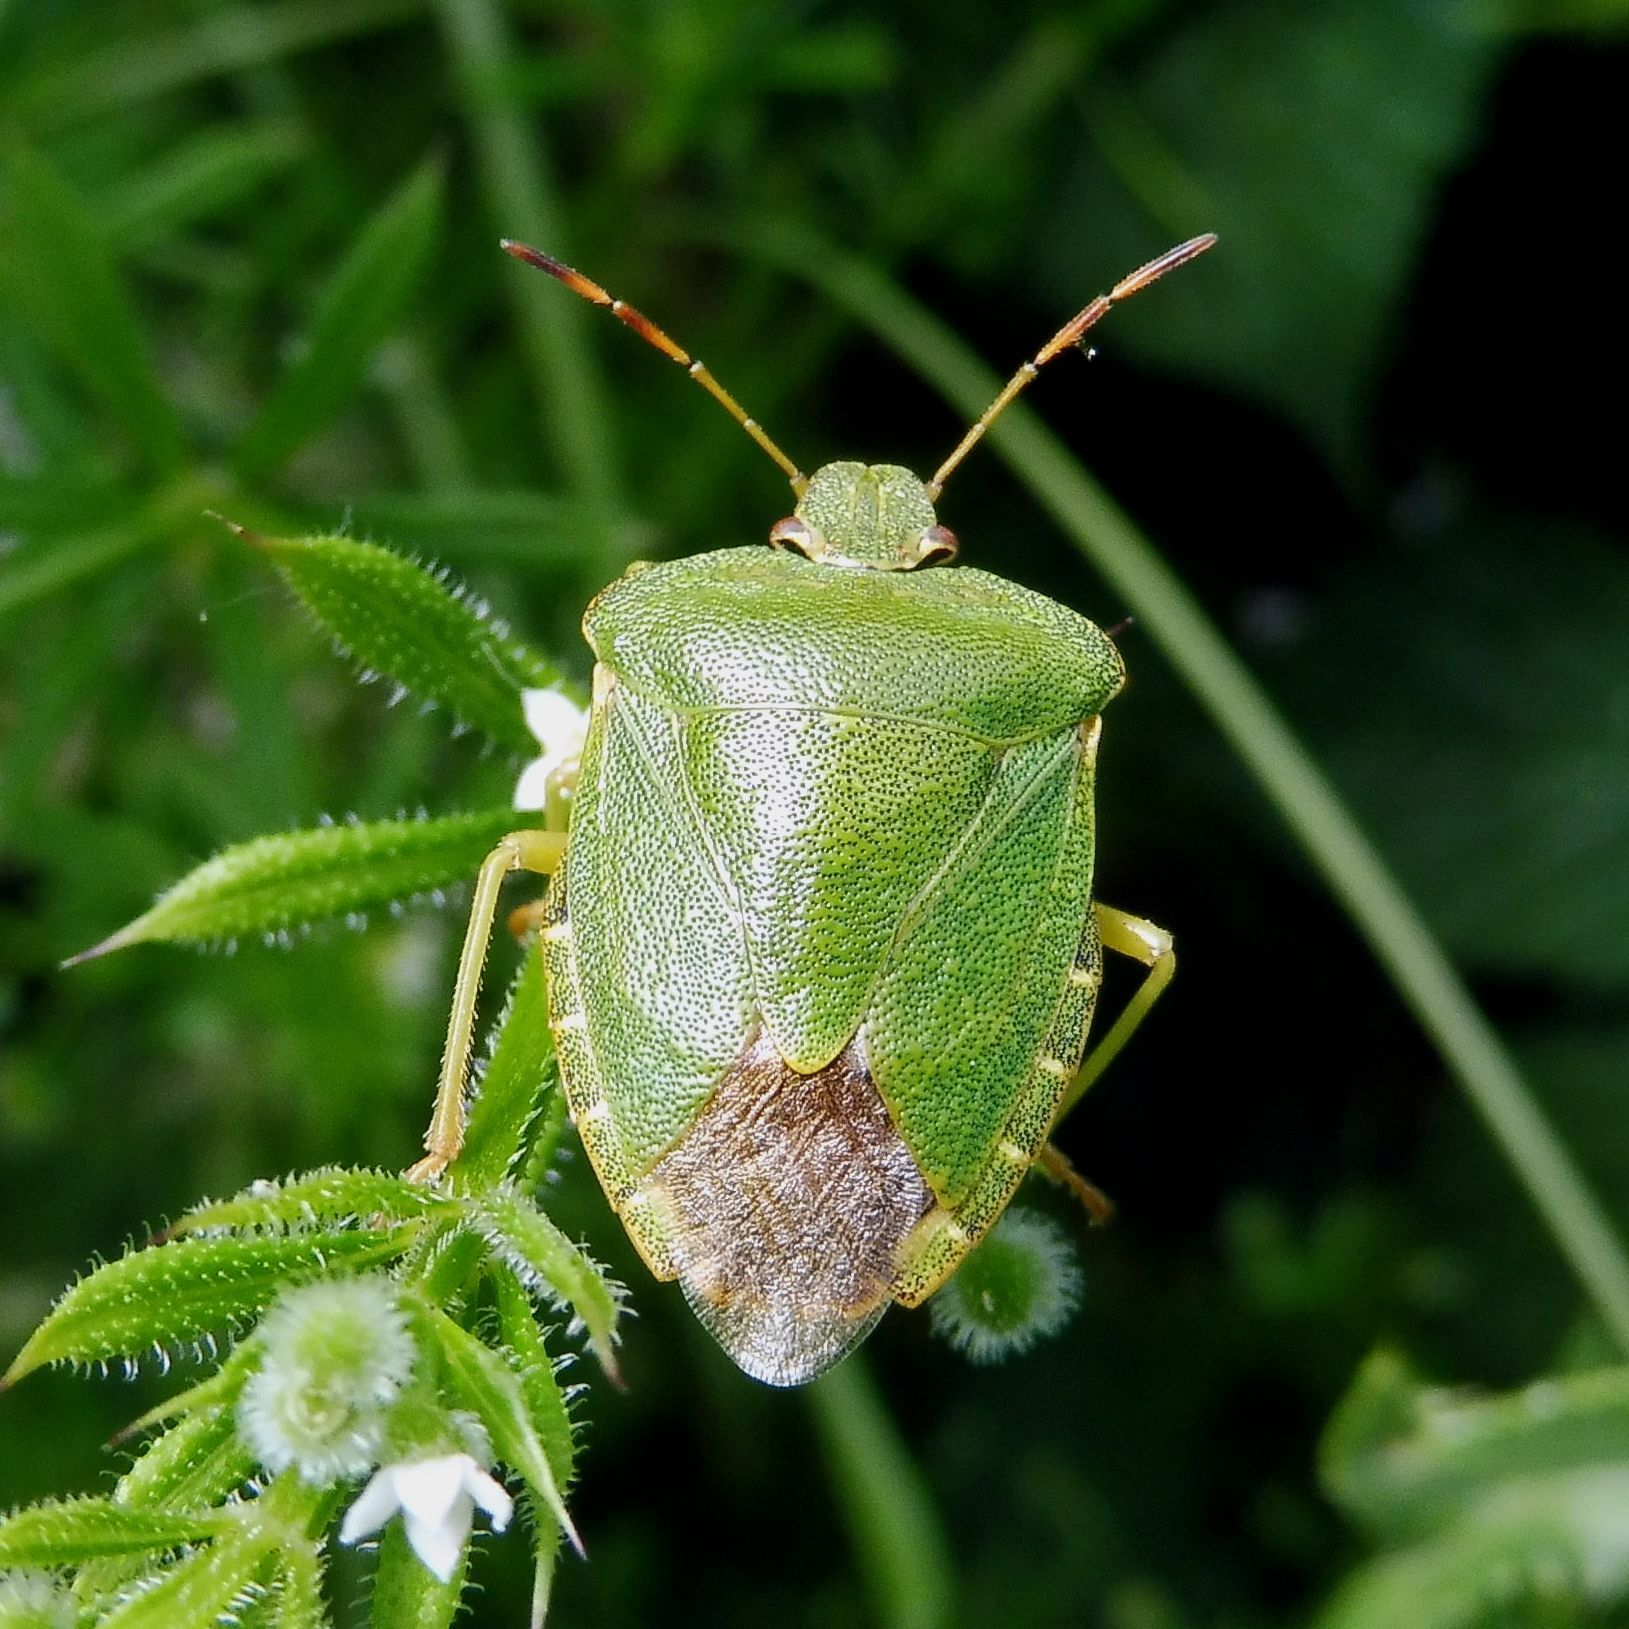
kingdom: Animalia
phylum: Arthropoda
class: Insecta
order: Hemiptera
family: Pentatomidae
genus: Palomena
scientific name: Palomena prasina
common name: Green shieldbug
